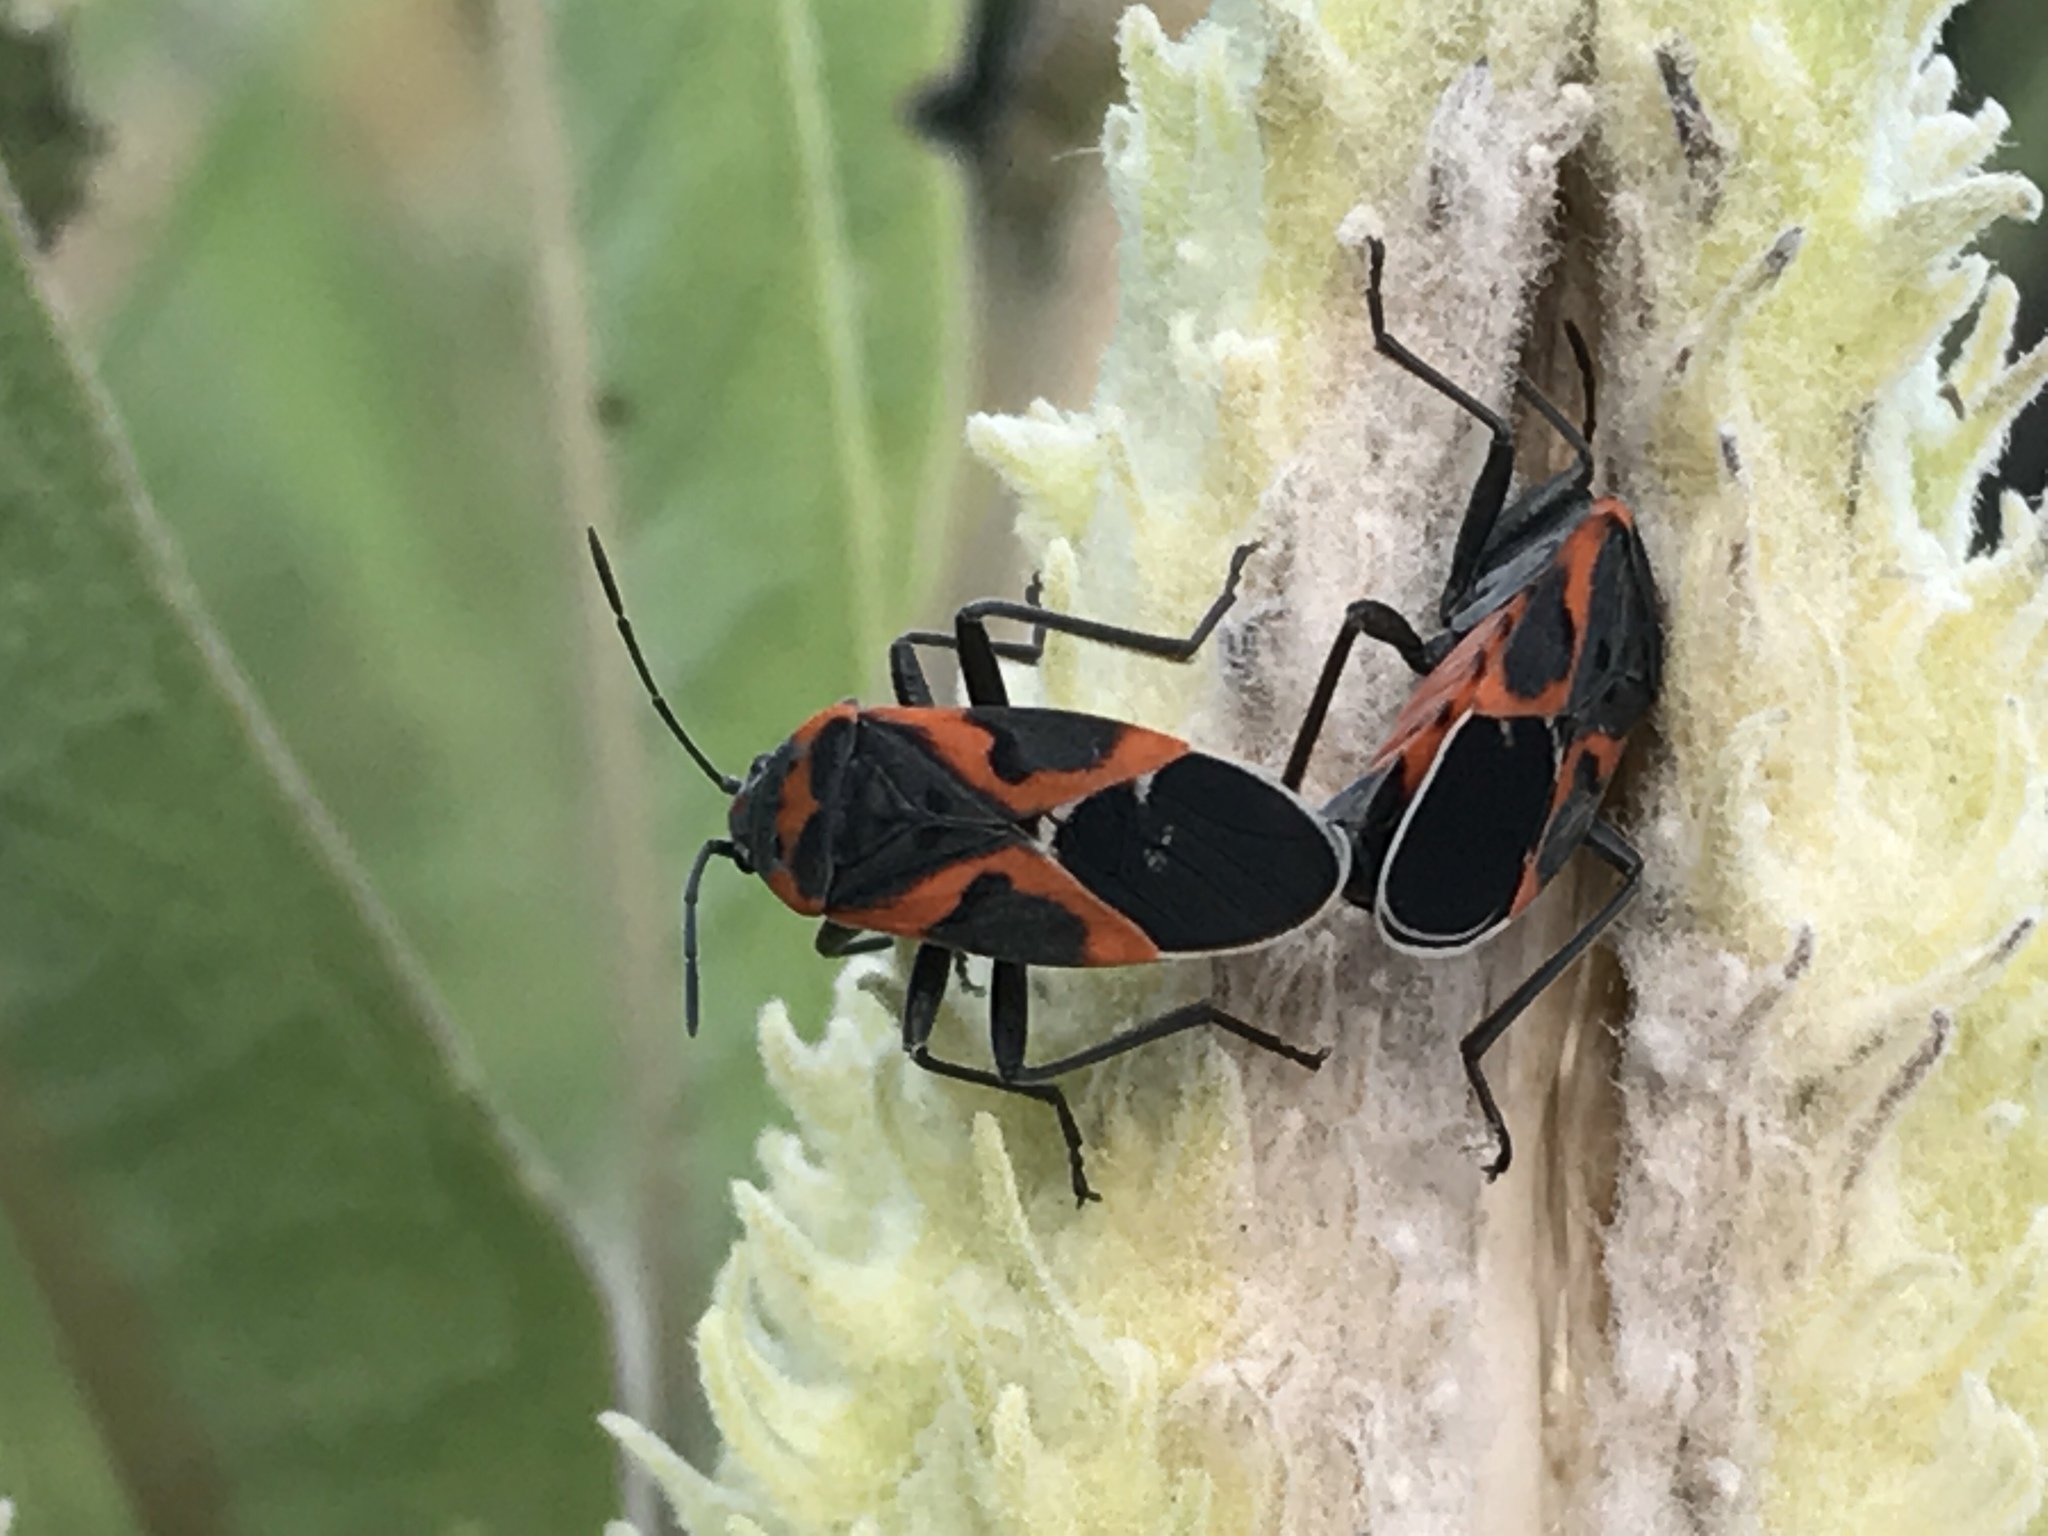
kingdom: Animalia
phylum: Arthropoda
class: Insecta
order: Hemiptera
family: Lygaeidae
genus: Lygaeus
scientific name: Lygaeus kalmii
